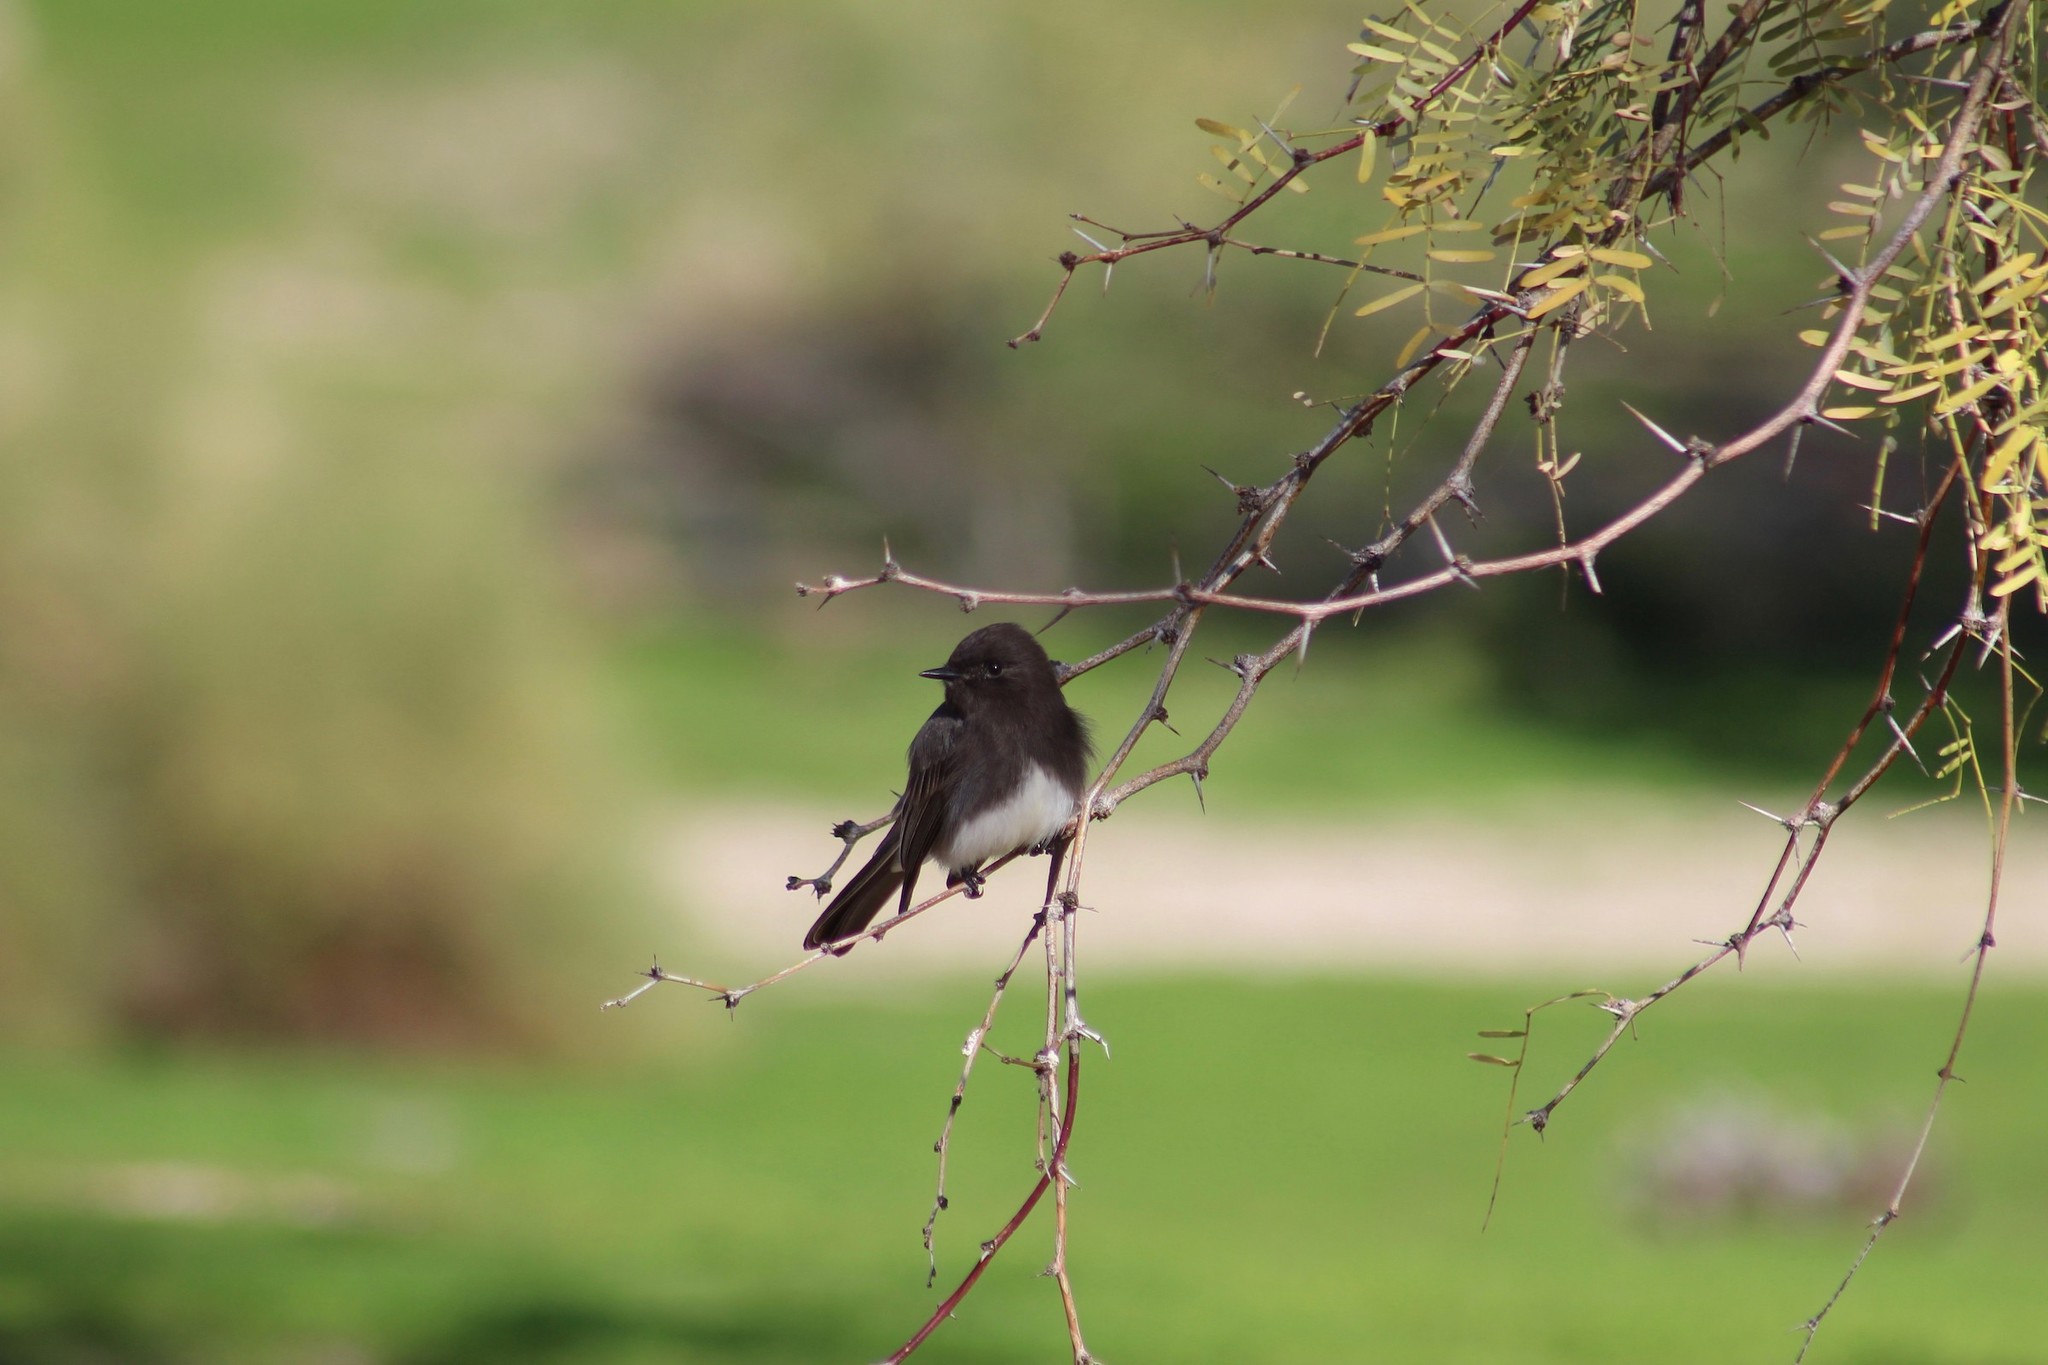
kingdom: Animalia
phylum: Chordata
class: Aves
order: Passeriformes
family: Tyrannidae
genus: Sayornis
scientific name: Sayornis nigricans
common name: Black phoebe
